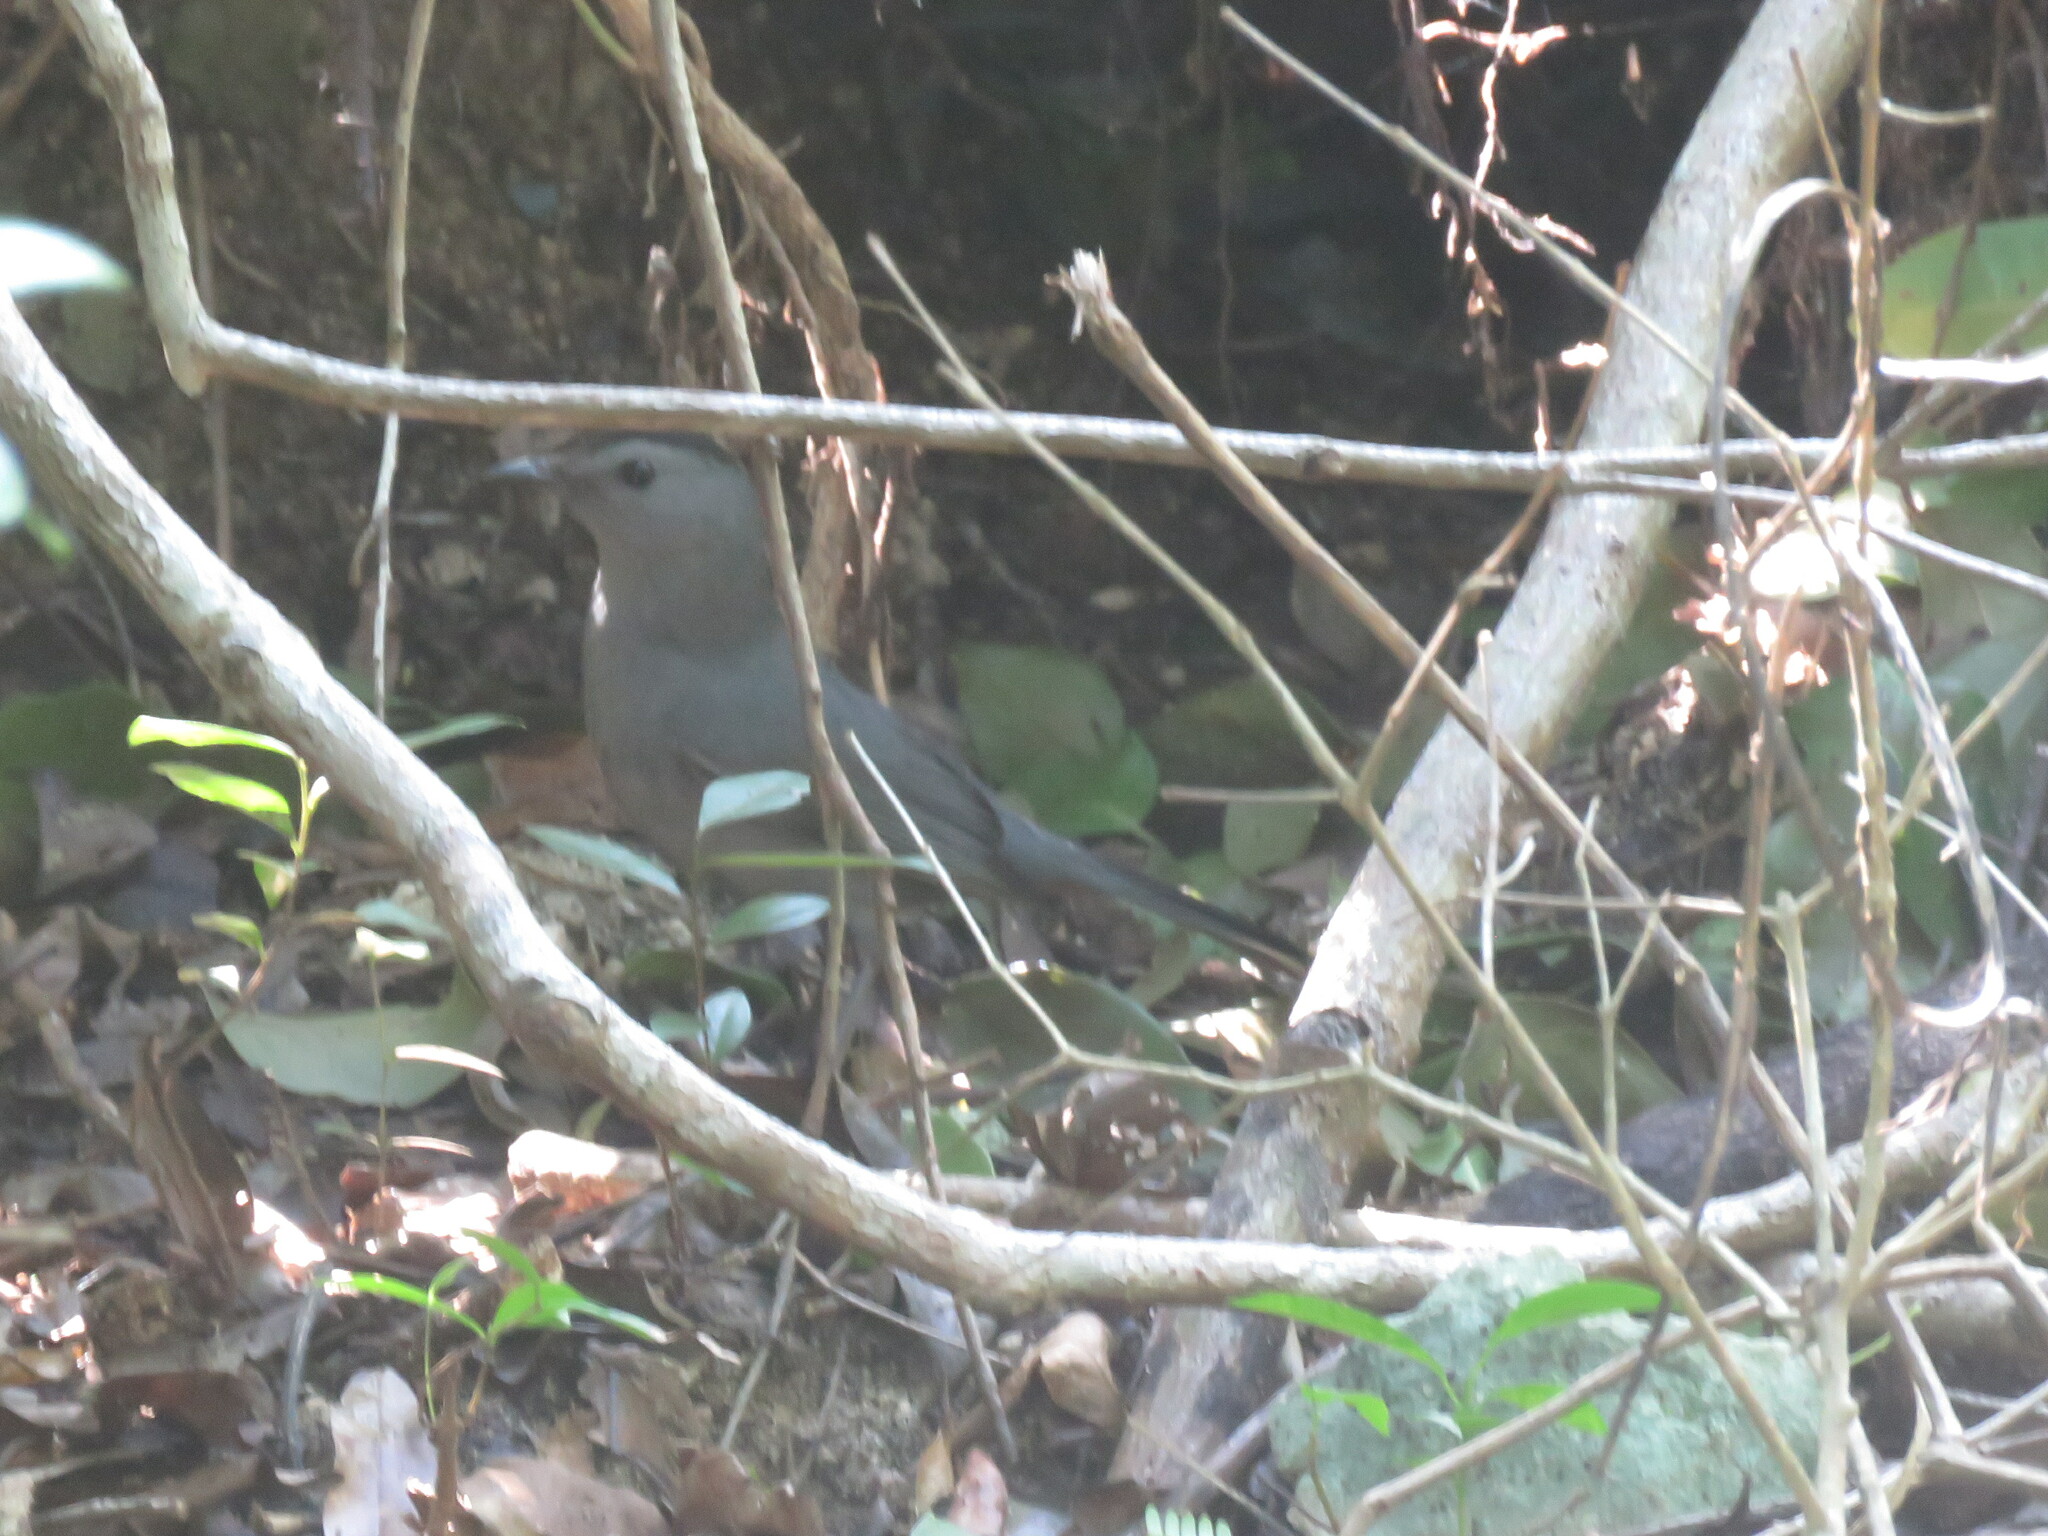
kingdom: Animalia
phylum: Chordata
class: Aves
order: Passeriformes
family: Mimidae
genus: Dumetella
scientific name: Dumetella carolinensis
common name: Gray catbird
